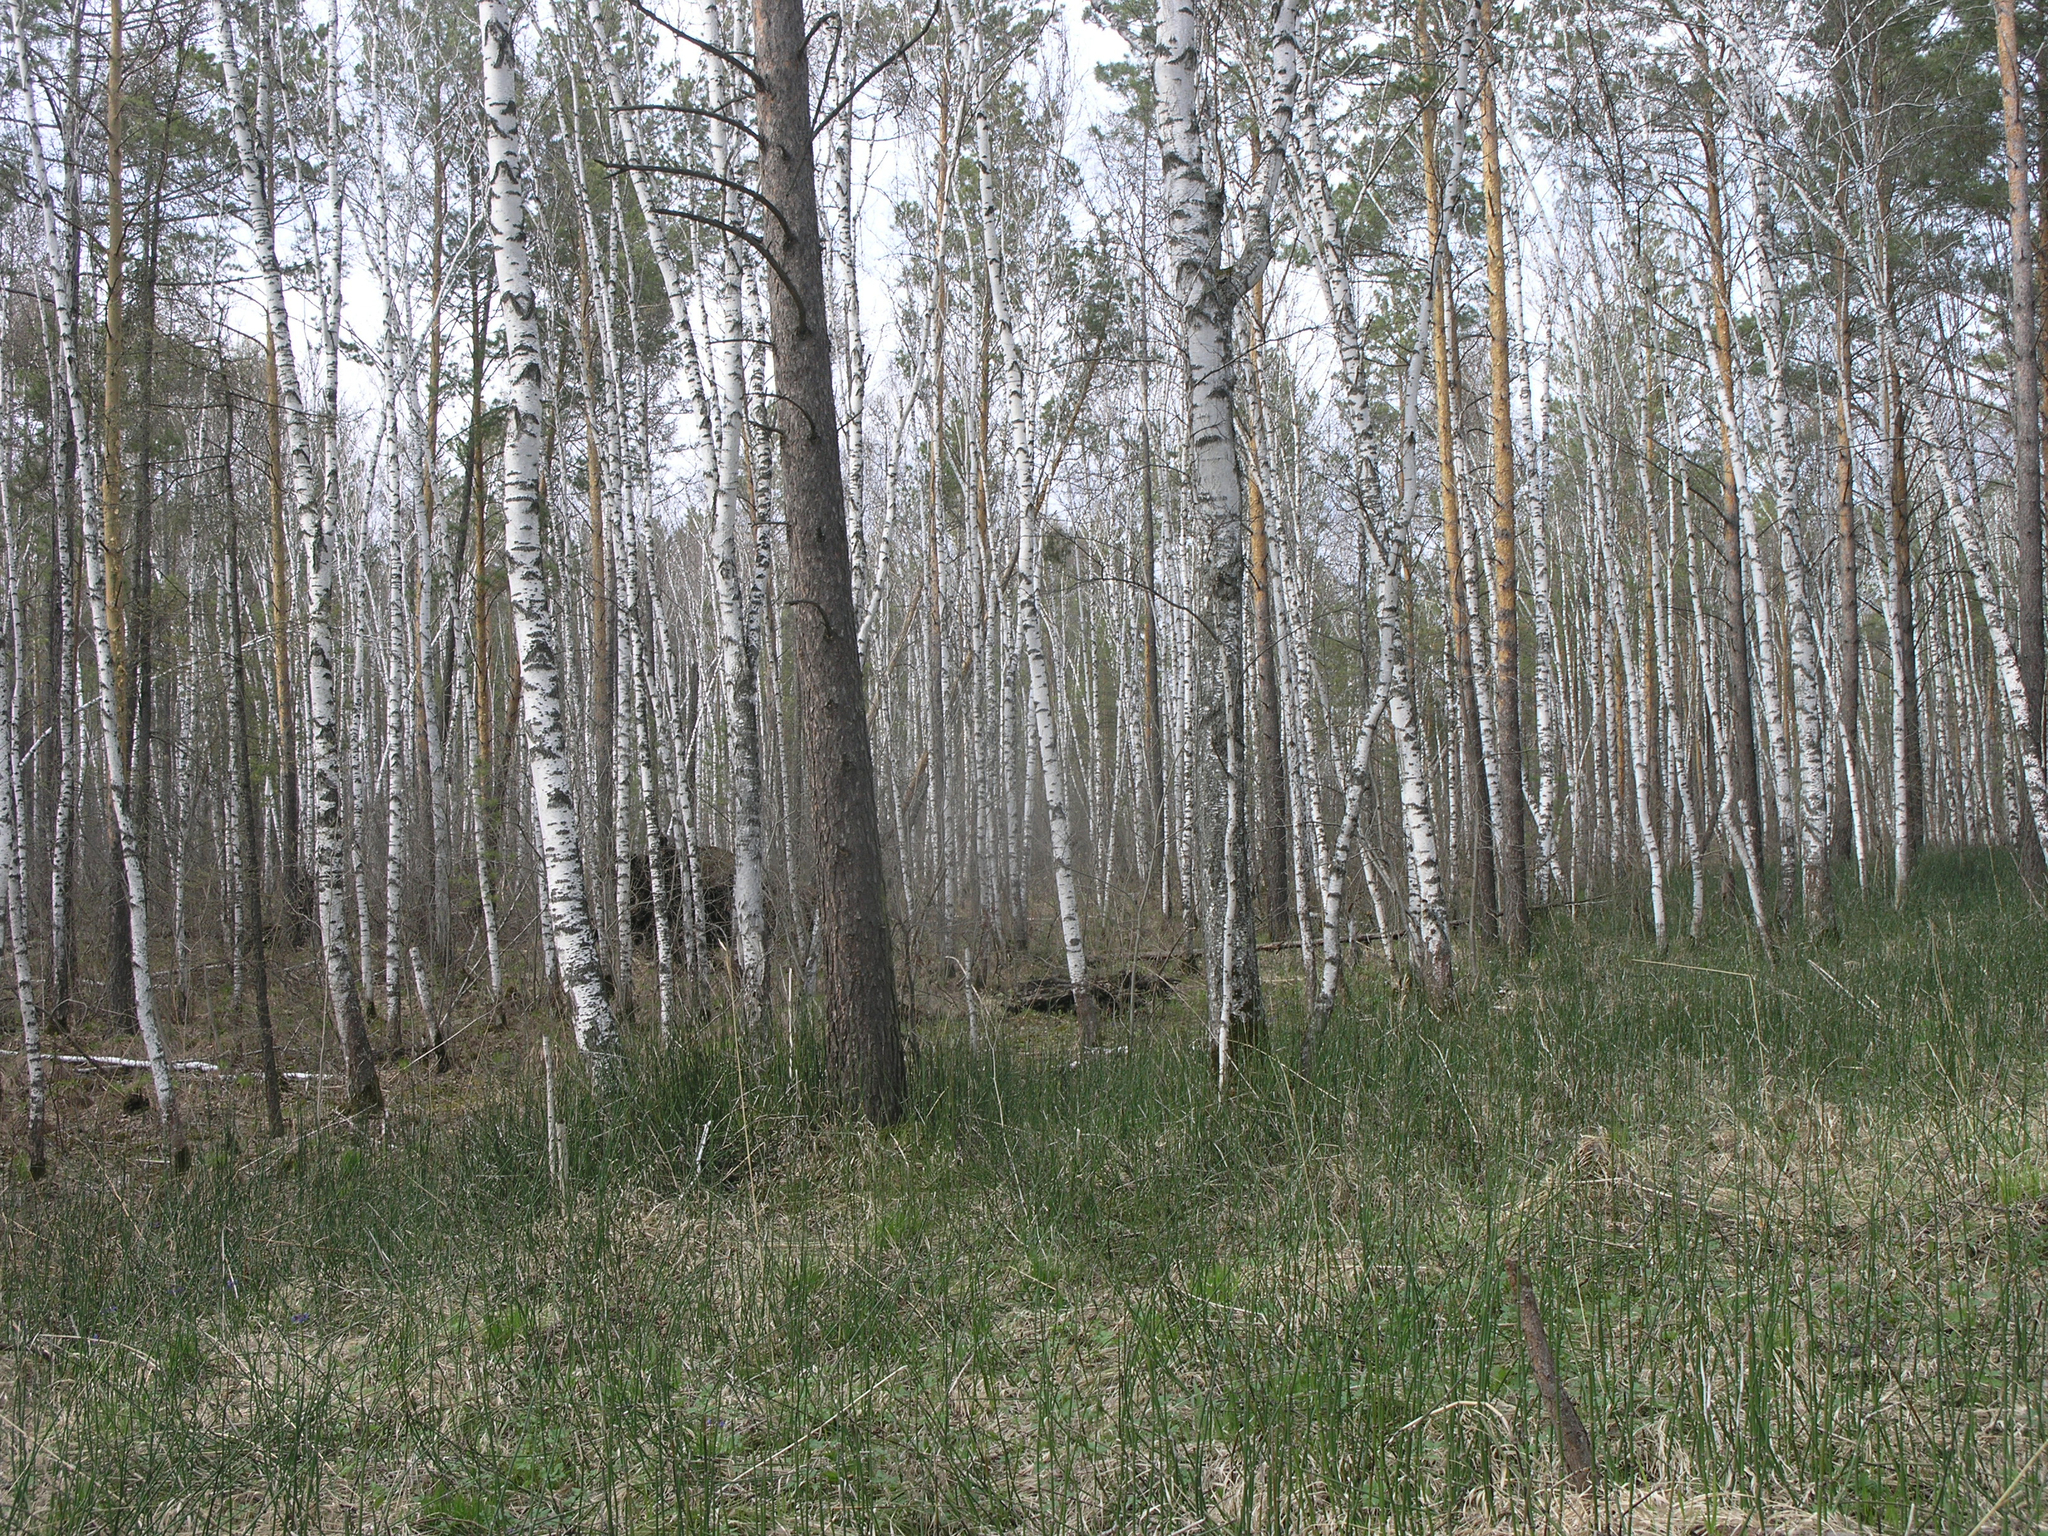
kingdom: Plantae
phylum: Tracheophyta
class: Polypodiopsida
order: Equisetales
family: Equisetaceae
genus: Equisetum
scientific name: Equisetum hyemale
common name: Rough horsetail
